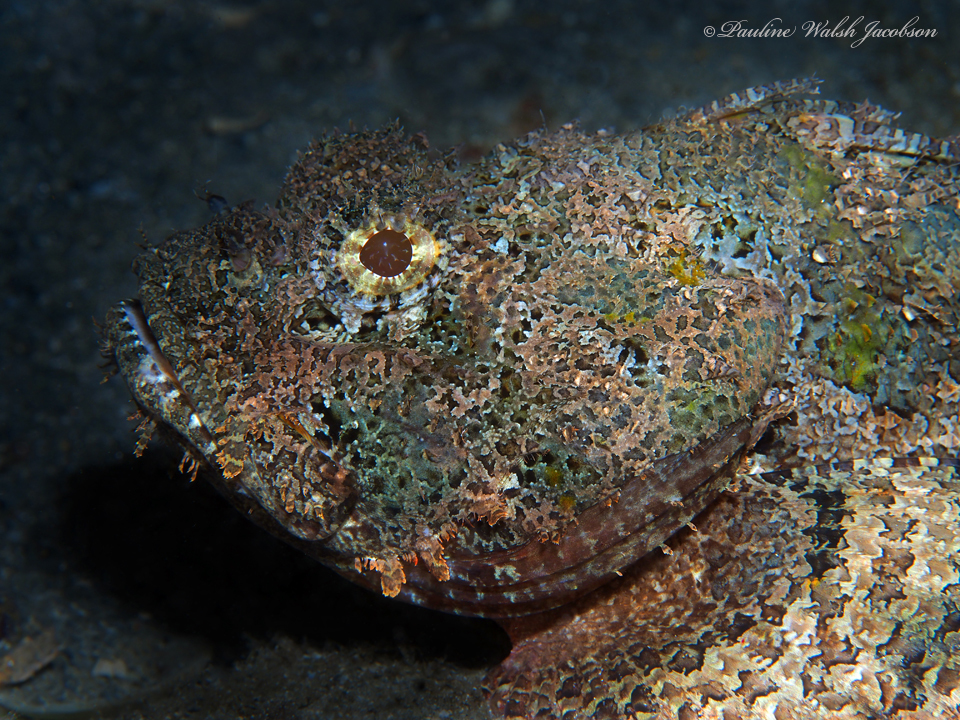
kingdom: Animalia
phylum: Chordata
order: Scorpaeniformes
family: Scorpaenidae
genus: Scorpaena
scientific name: Scorpaena plumieri
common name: Spotted scorpionfish
